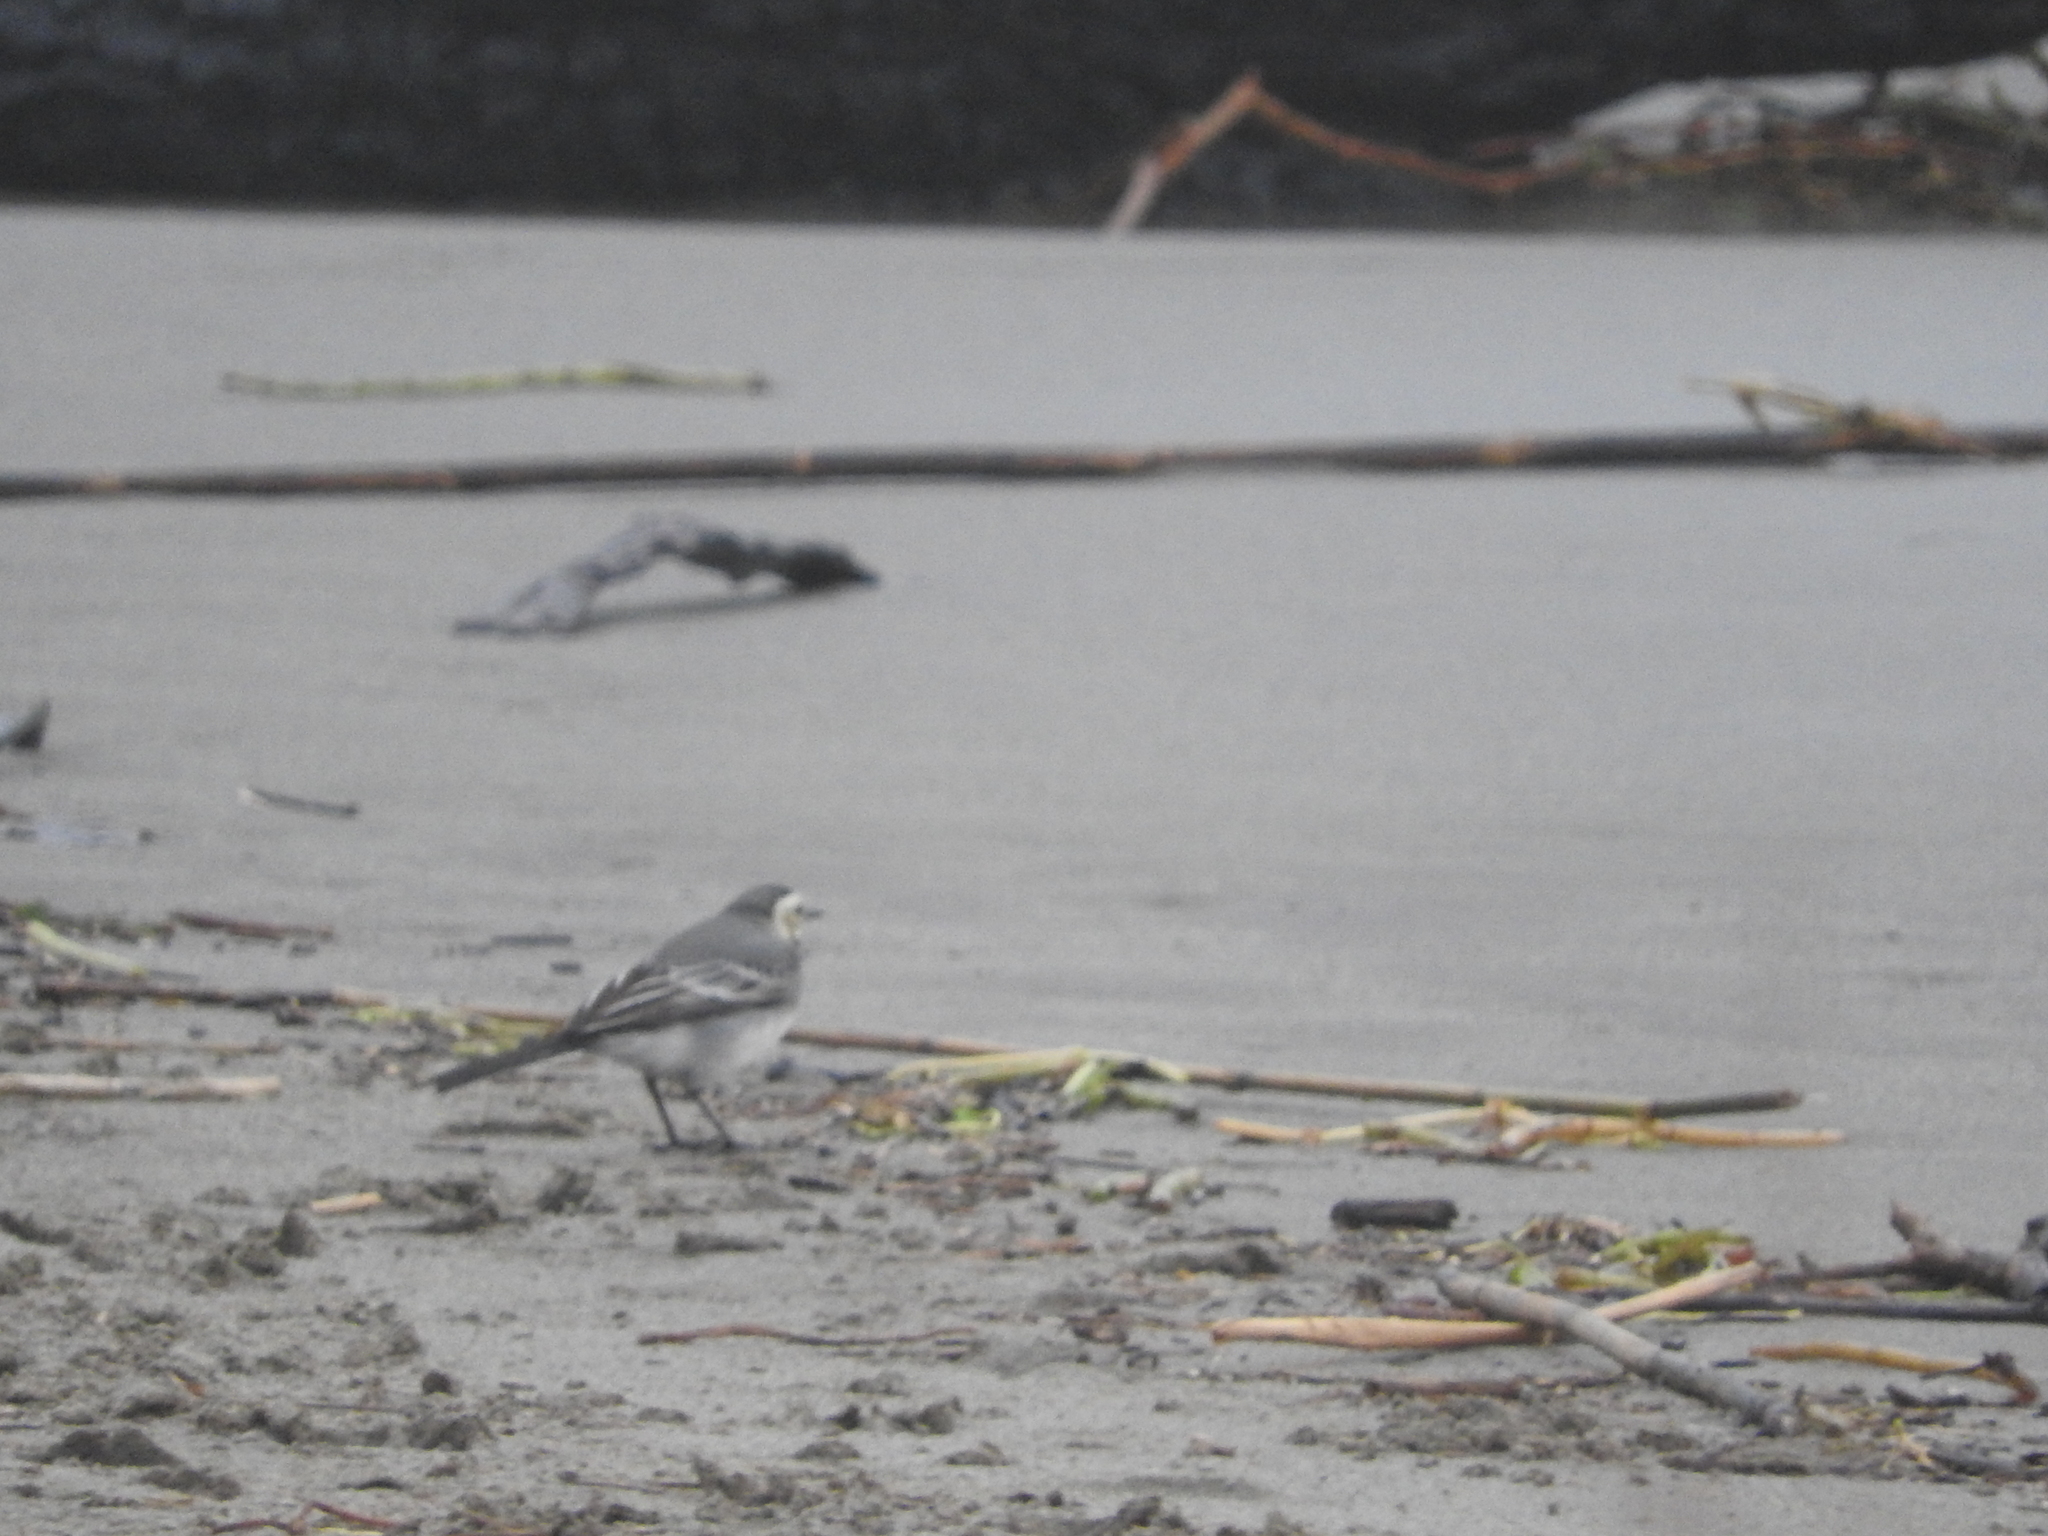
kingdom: Animalia
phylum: Chordata
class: Aves
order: Passeriformes
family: Motacillidae
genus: Motacilla
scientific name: Motacilla alba
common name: White wagtail
